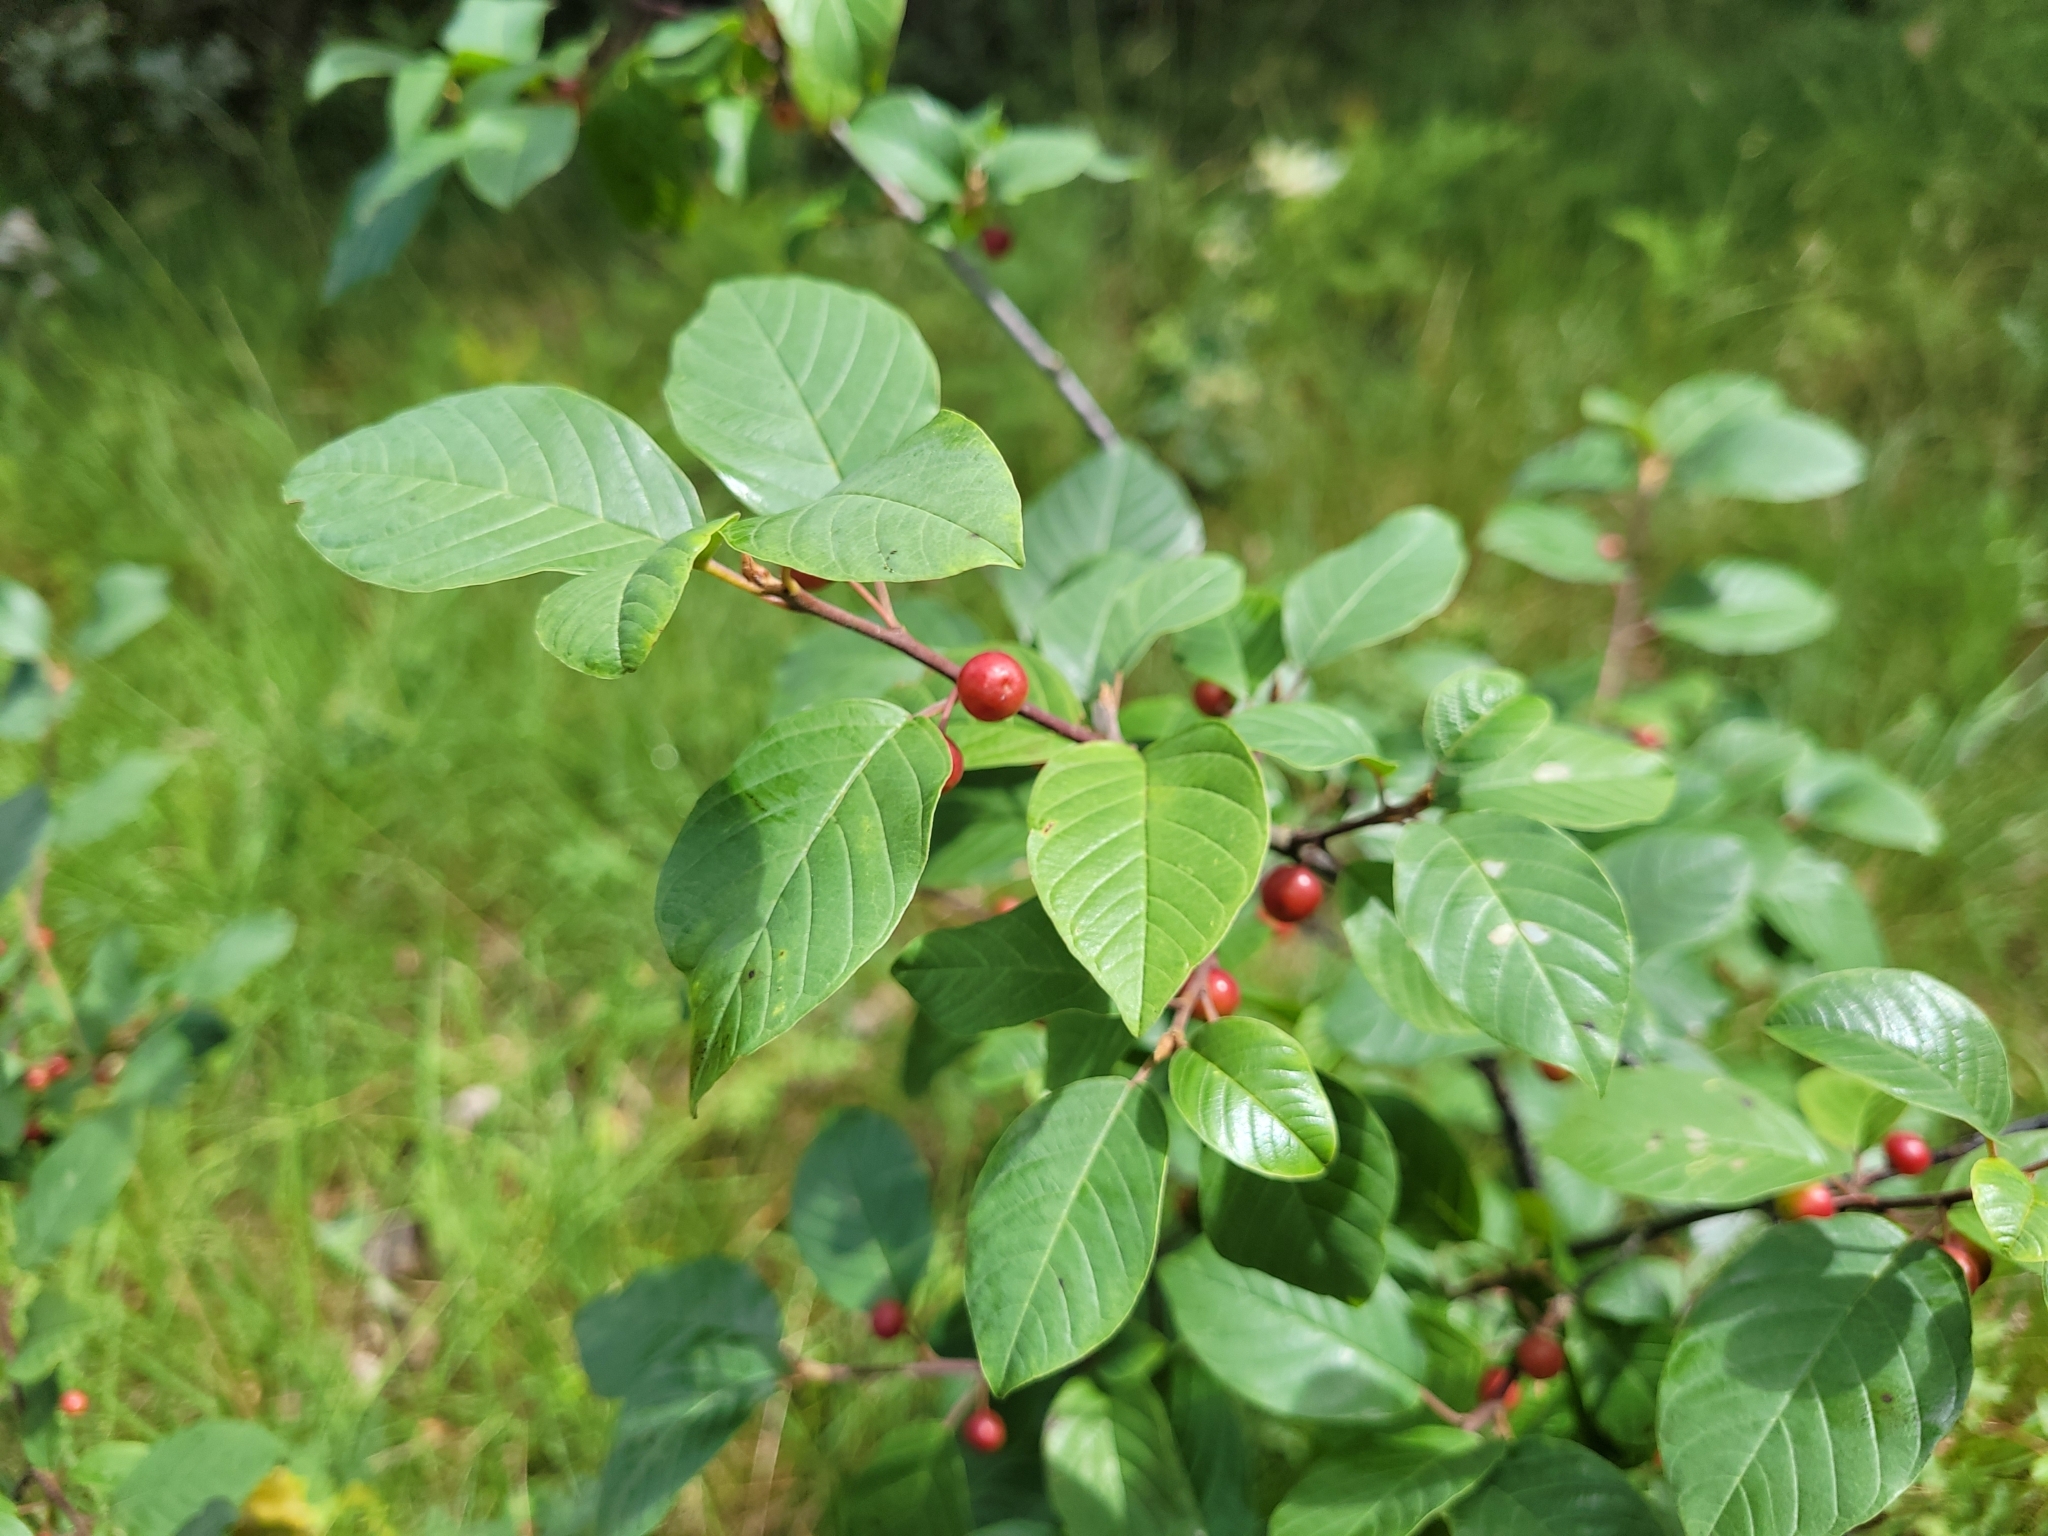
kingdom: Plantae
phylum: Tracheophyta
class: Magnoliopsida
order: Rosales
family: Rhamnaceae
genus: Frangula
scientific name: Frangula alnus
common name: Alder buckthorn
